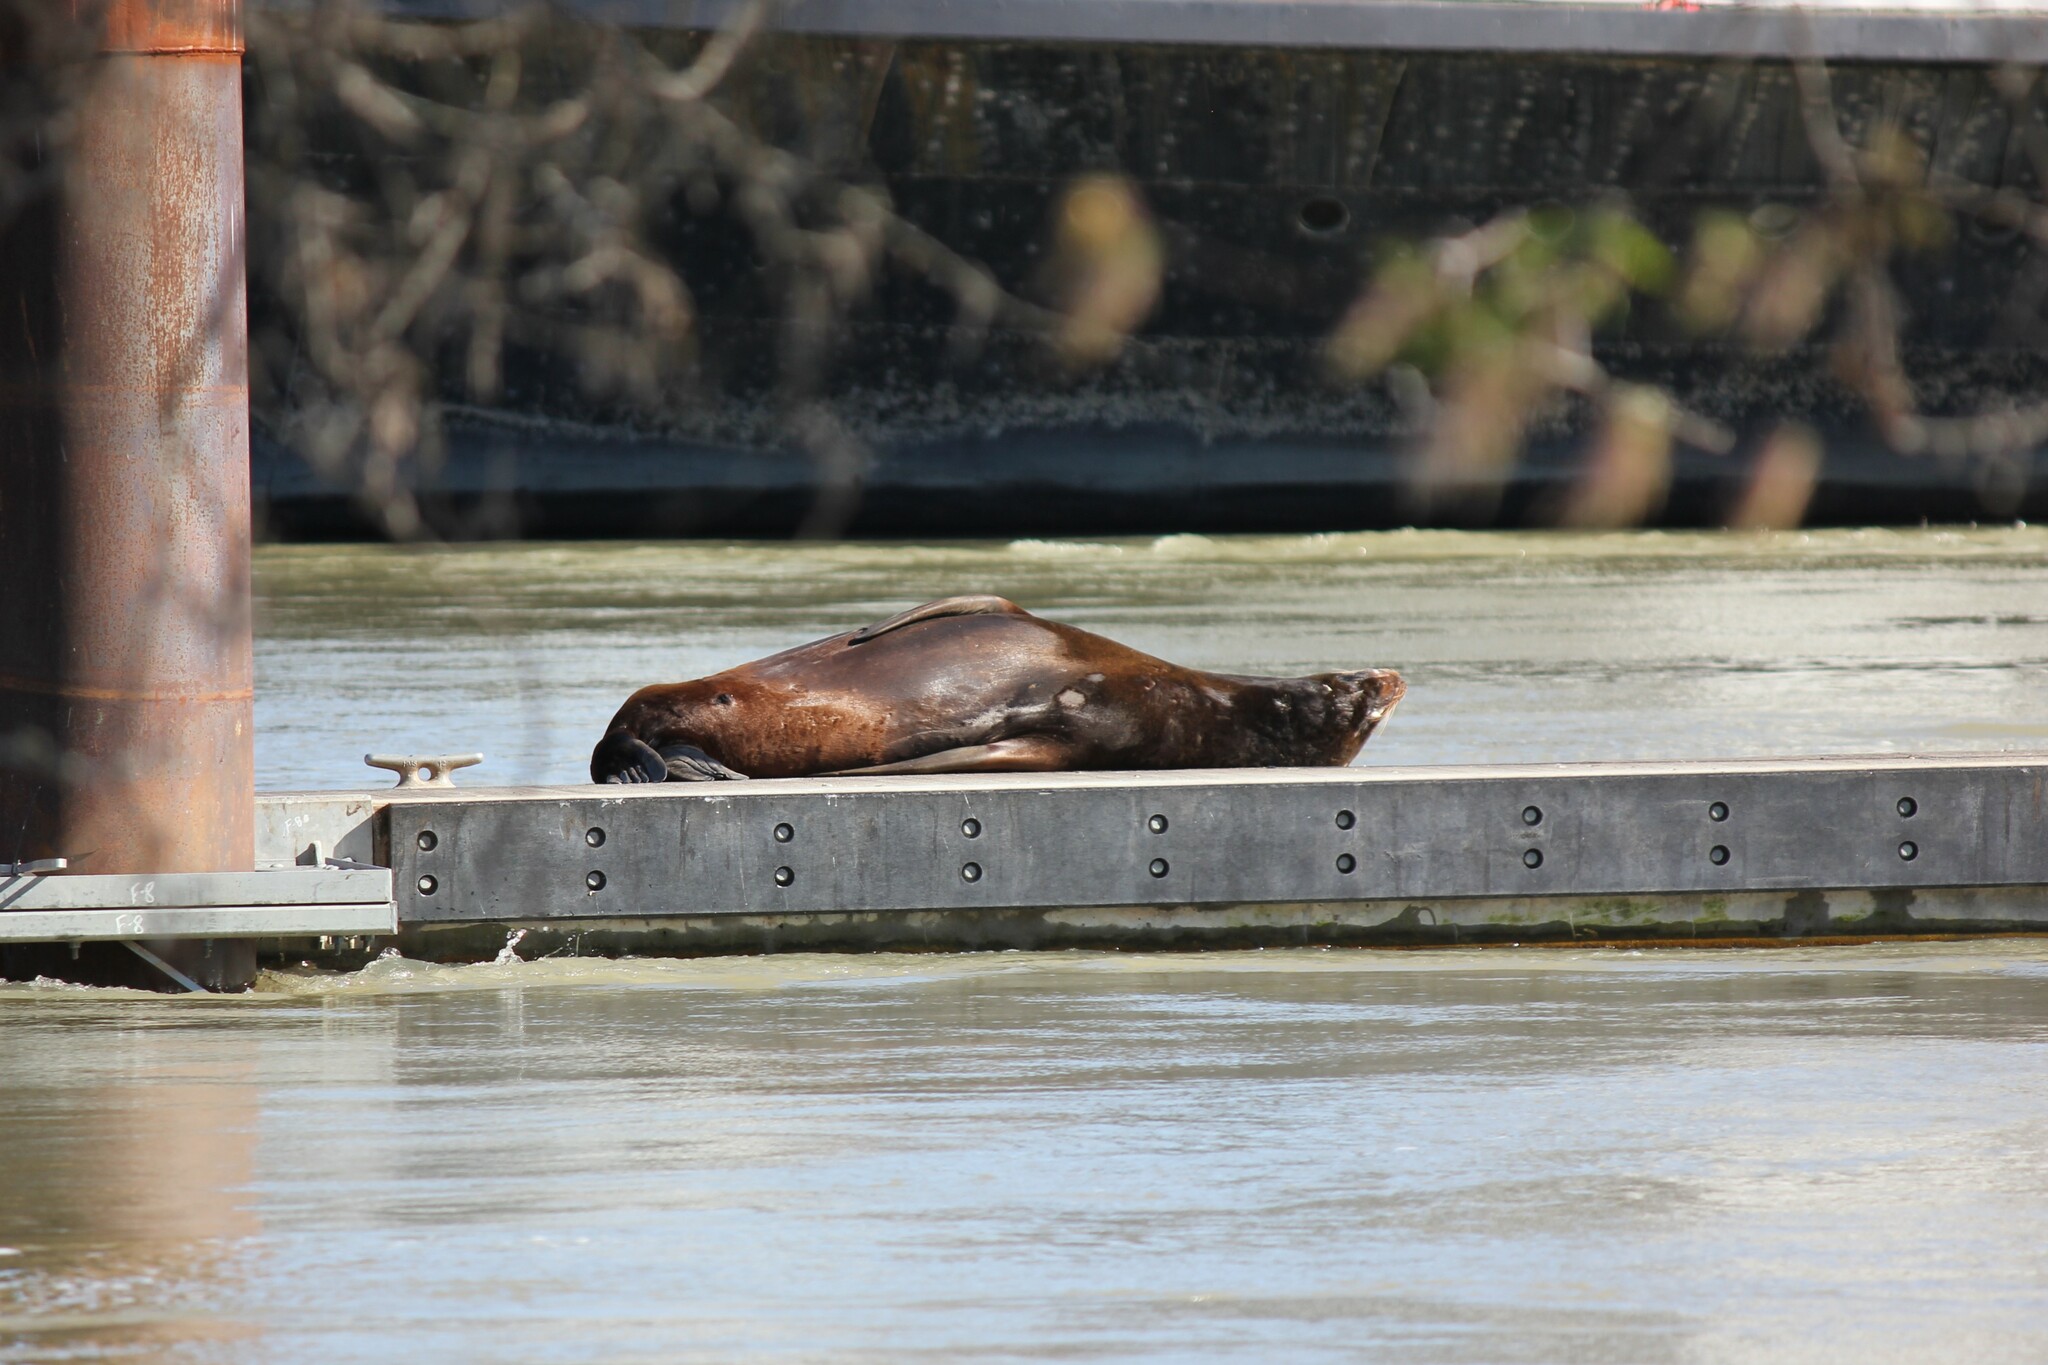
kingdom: Animalia
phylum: Chordata
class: Mammalia
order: Carnivora
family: Otariidae
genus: Zalophus
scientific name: Zalophus californianus
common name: California sea lion
